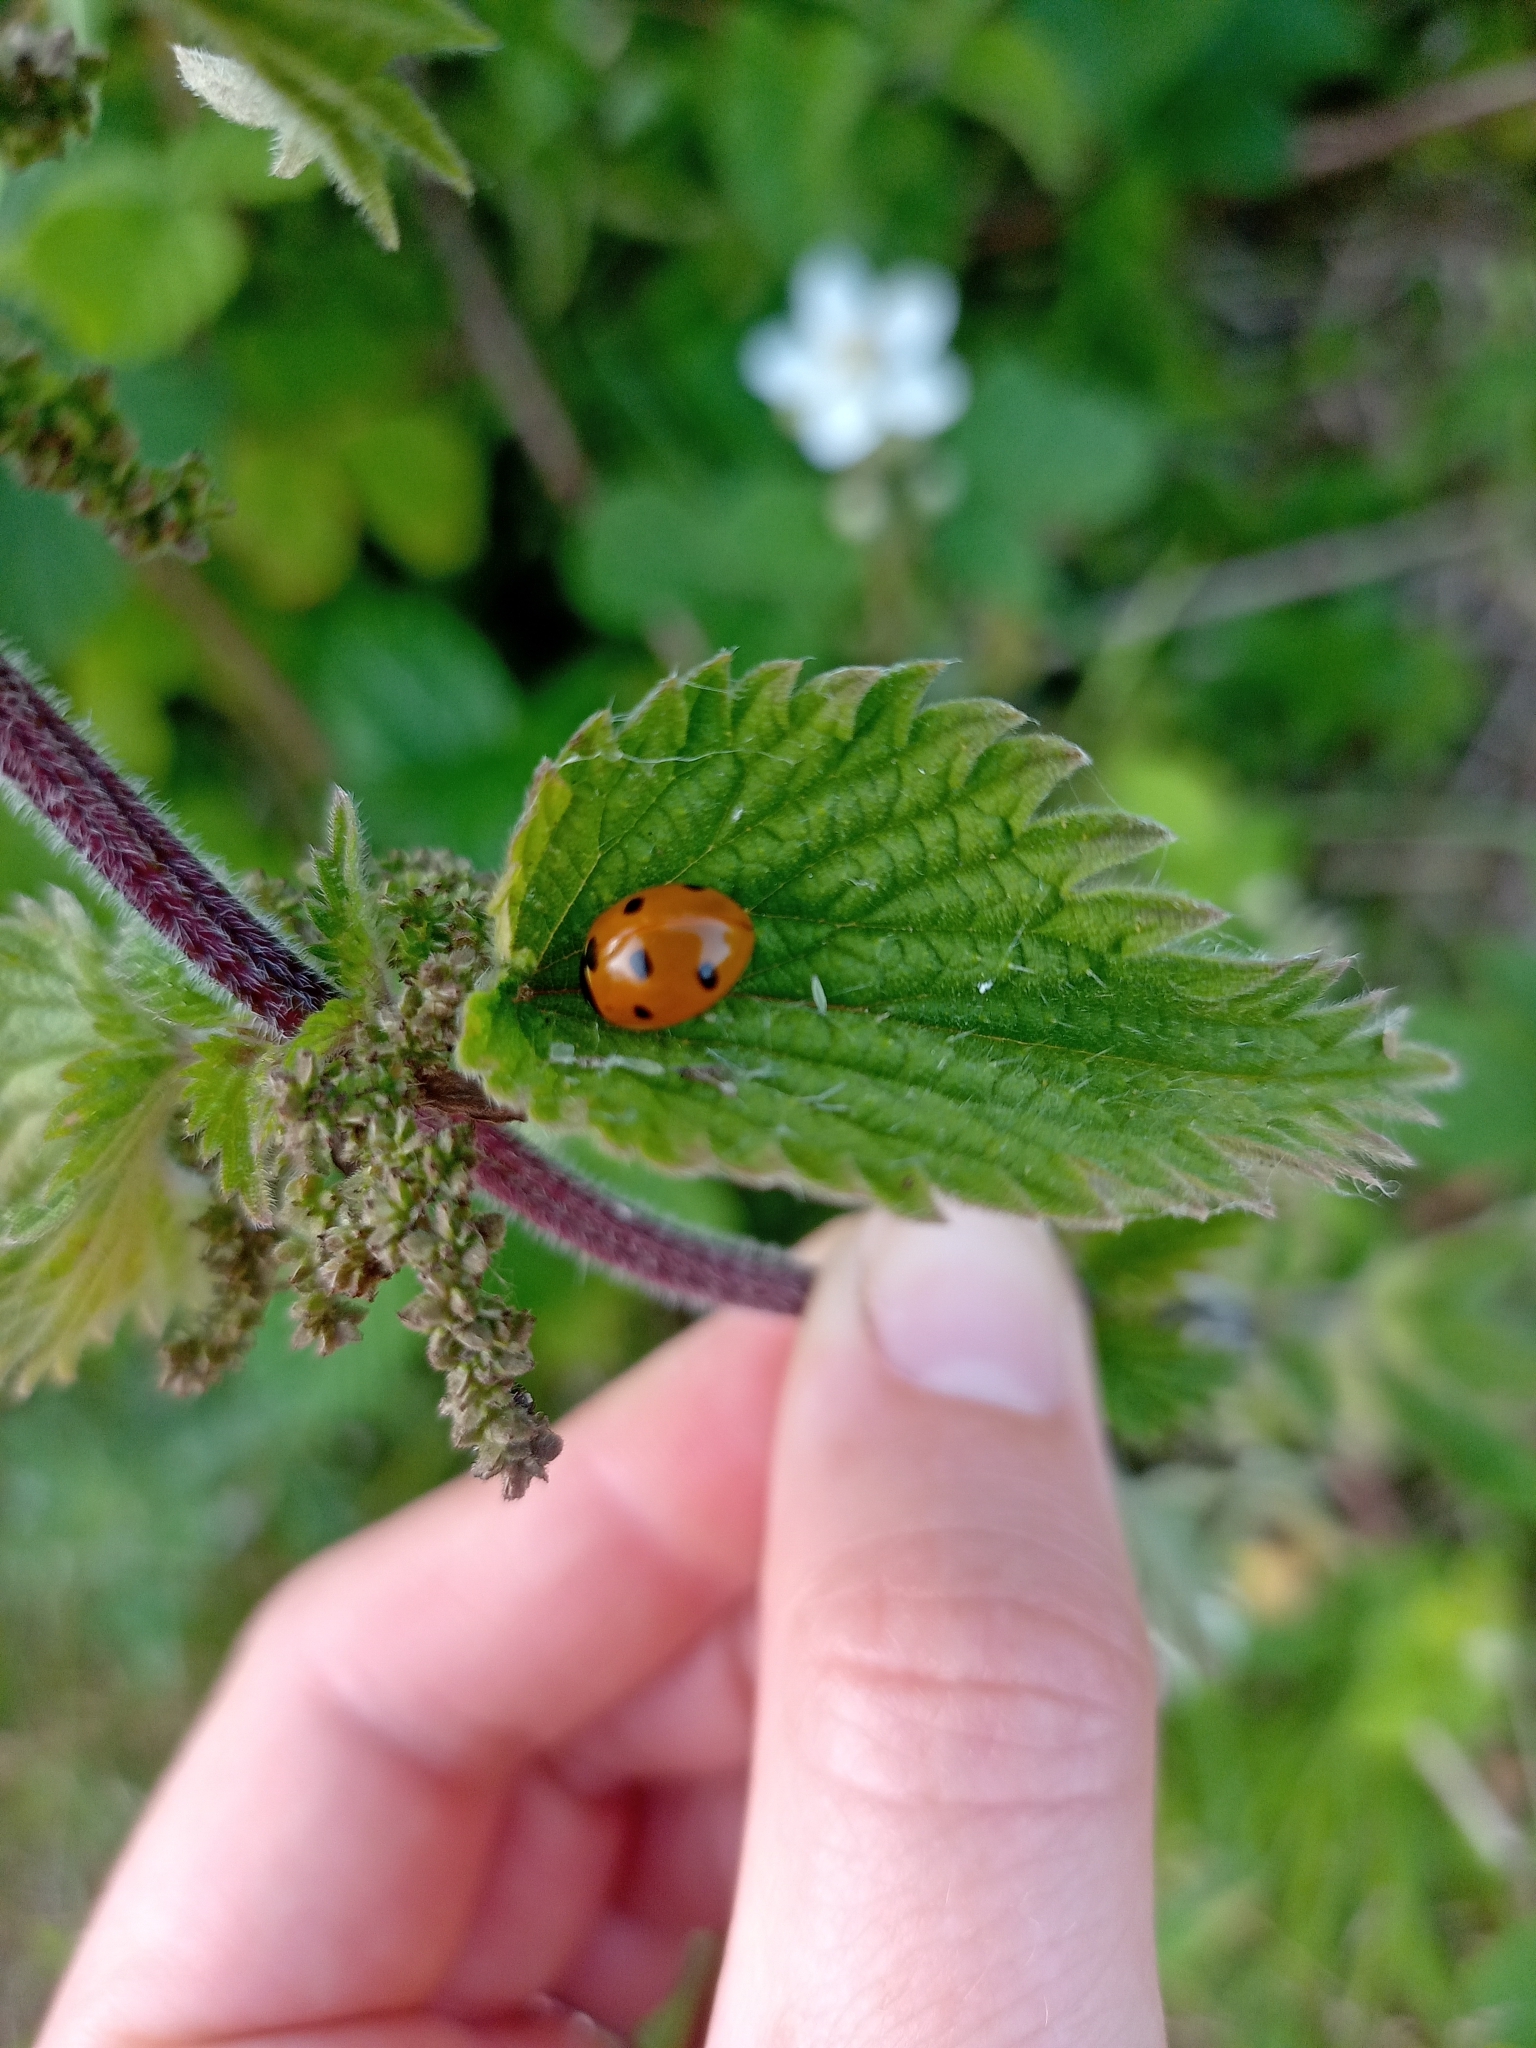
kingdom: Animalia
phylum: Arthropoda
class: Insecta
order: Coleoptera
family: Coccinellidae
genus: Coccinella
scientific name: Coccinella septempunctata
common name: Sevenspotted lady beetle
